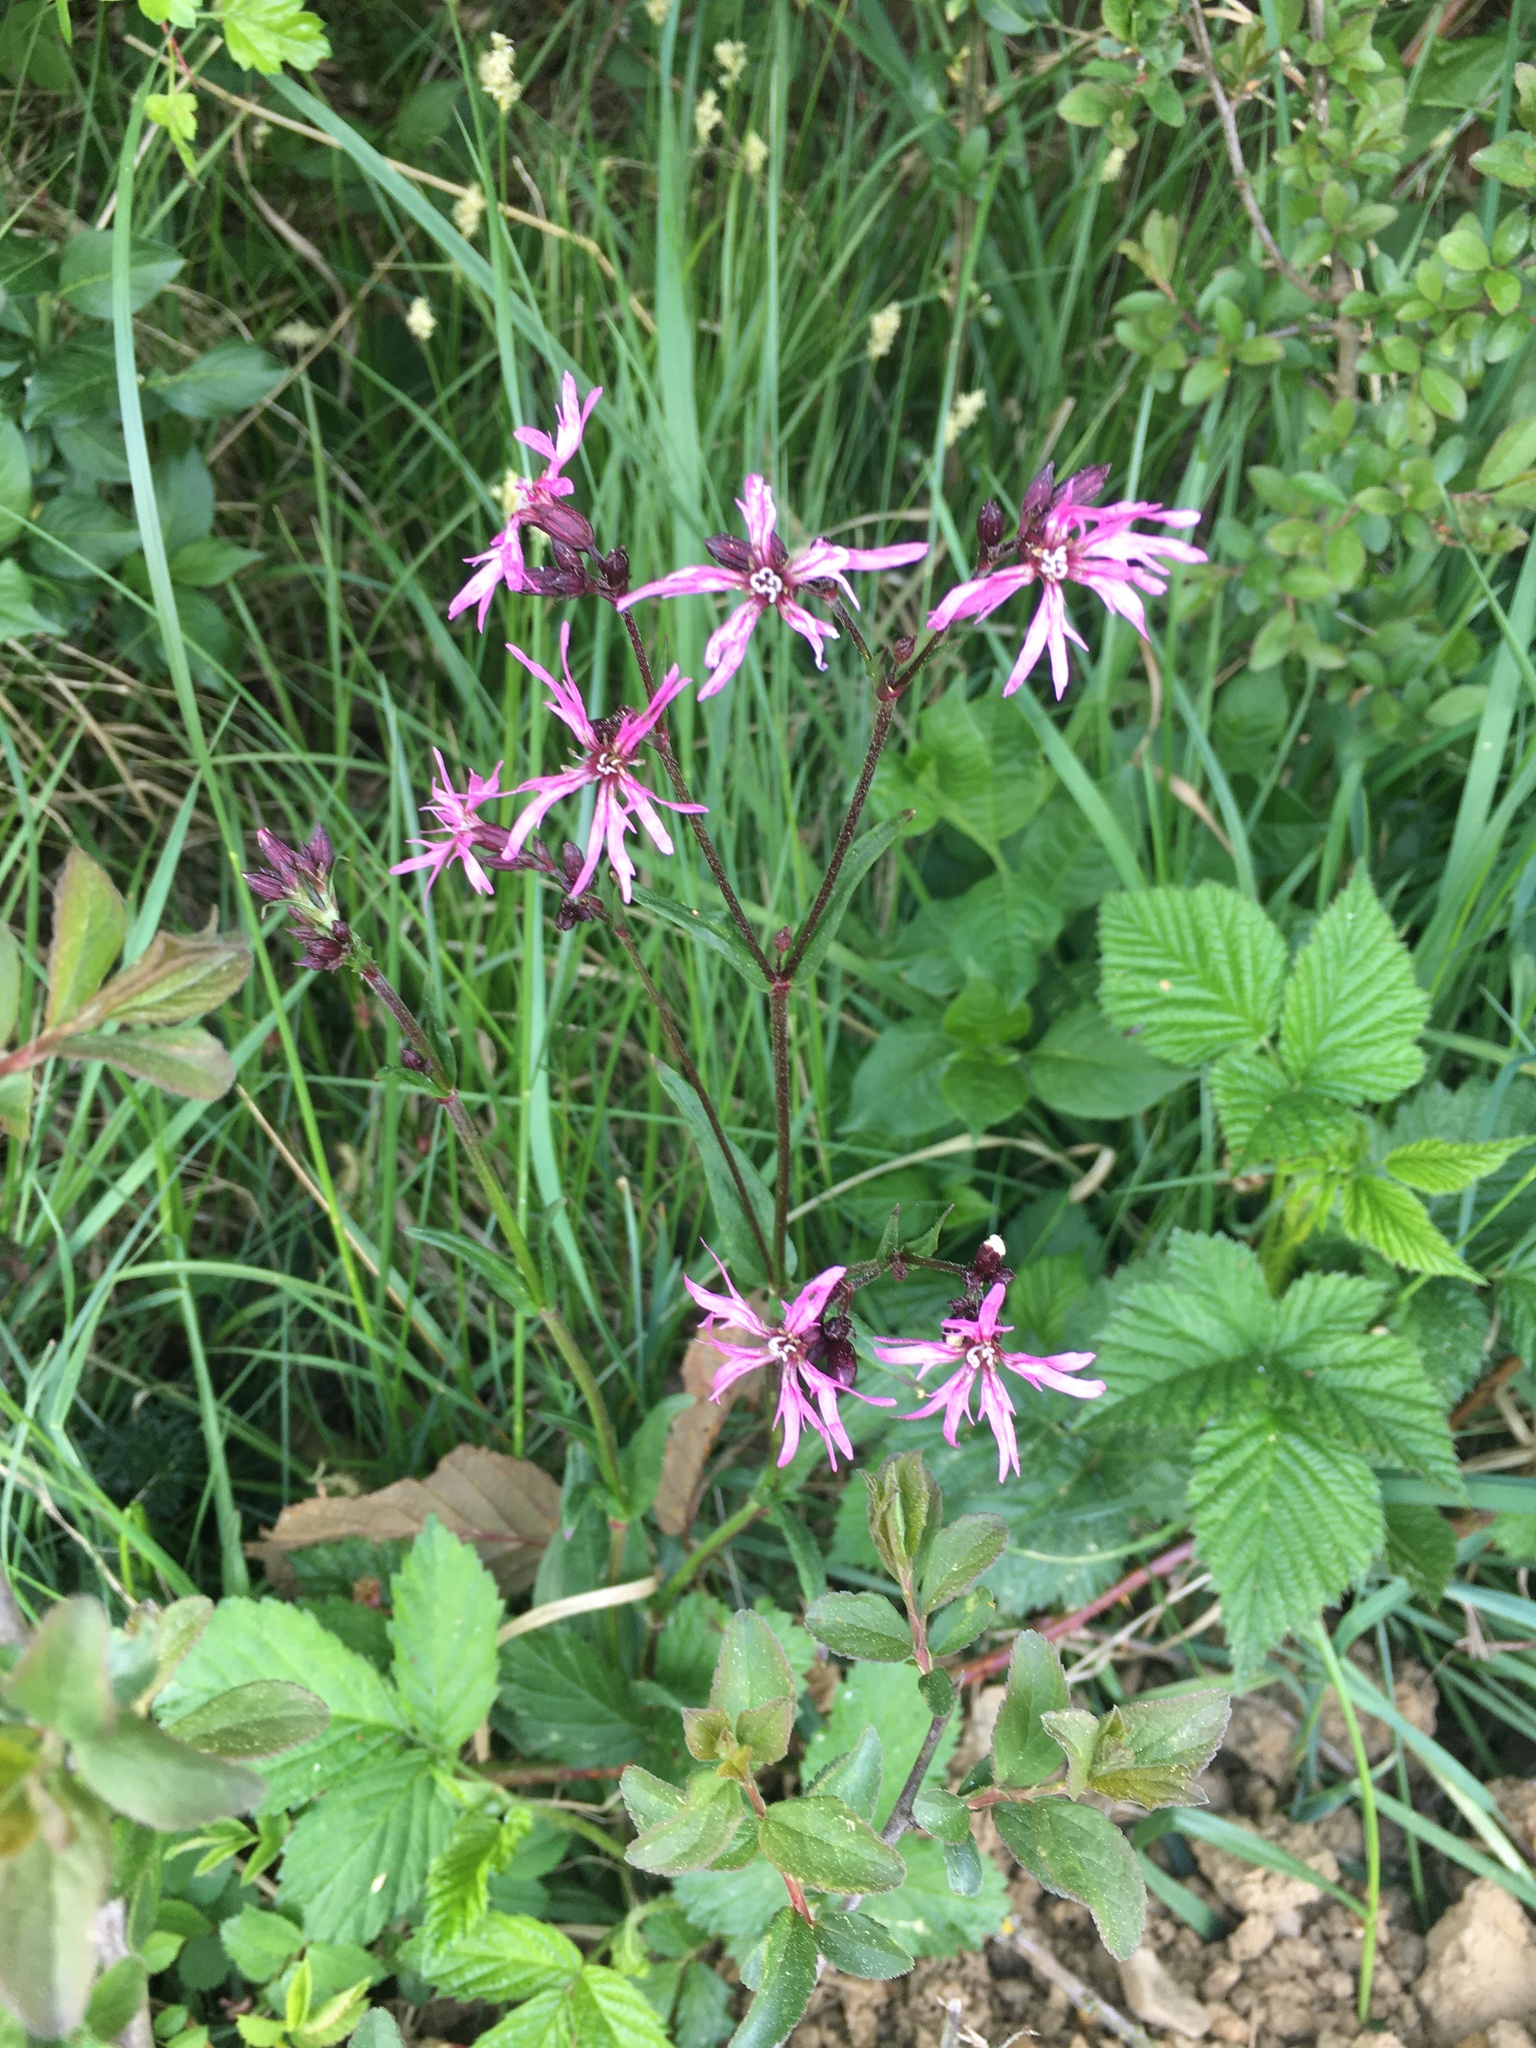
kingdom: Plantae
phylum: Tracheophyta
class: Magnoliopsida
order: Caryophyllales
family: Caryophyllaceae
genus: Silene
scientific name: Silene flos-cuculi
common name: Ragged-robin
